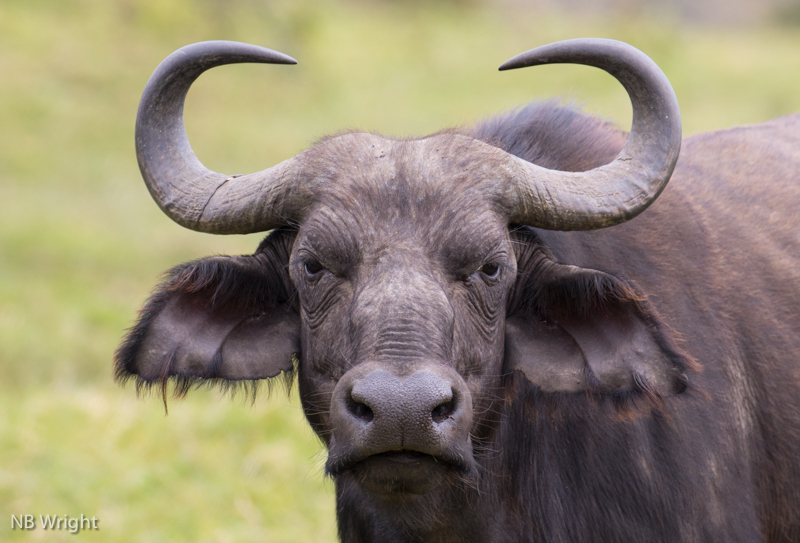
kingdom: Animalia
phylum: Chordata
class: Mammalia
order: Artiodactyla
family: Bovidae
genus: Syncerus
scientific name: Syncerus caffer
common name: African buffalo
